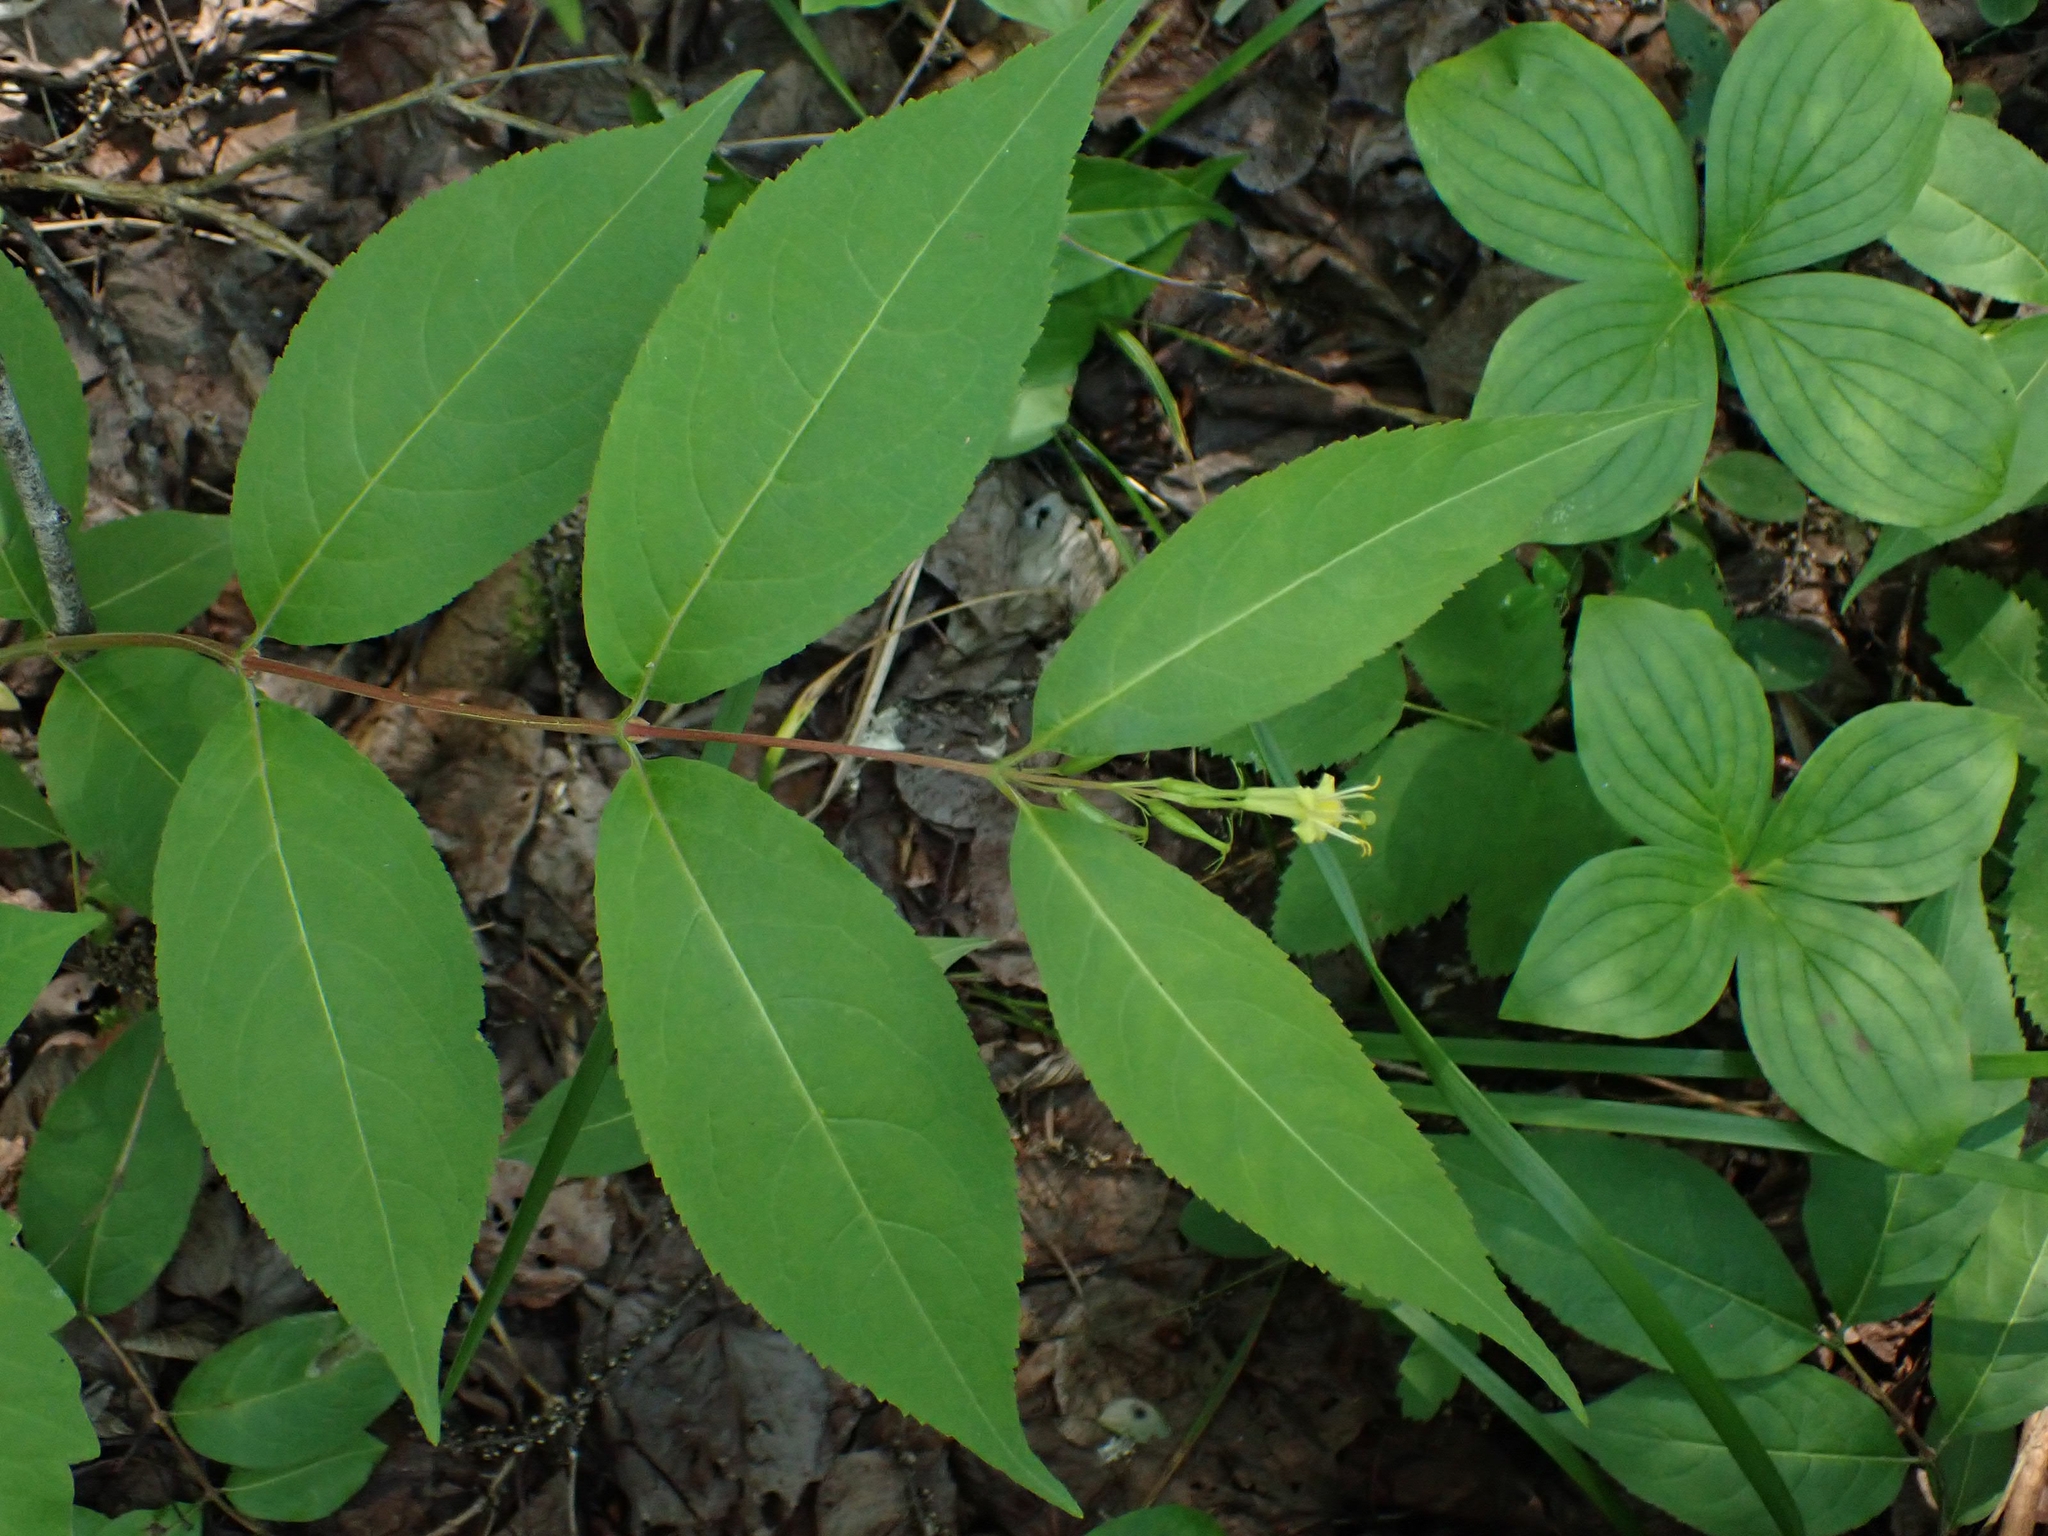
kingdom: Plantae
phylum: Tracheophyta
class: Magnoliopsida
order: Dipsacales
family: Caprifoliaceae
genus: Diervilla
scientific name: Diervilla lonicera
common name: Bush-honeysuckle
